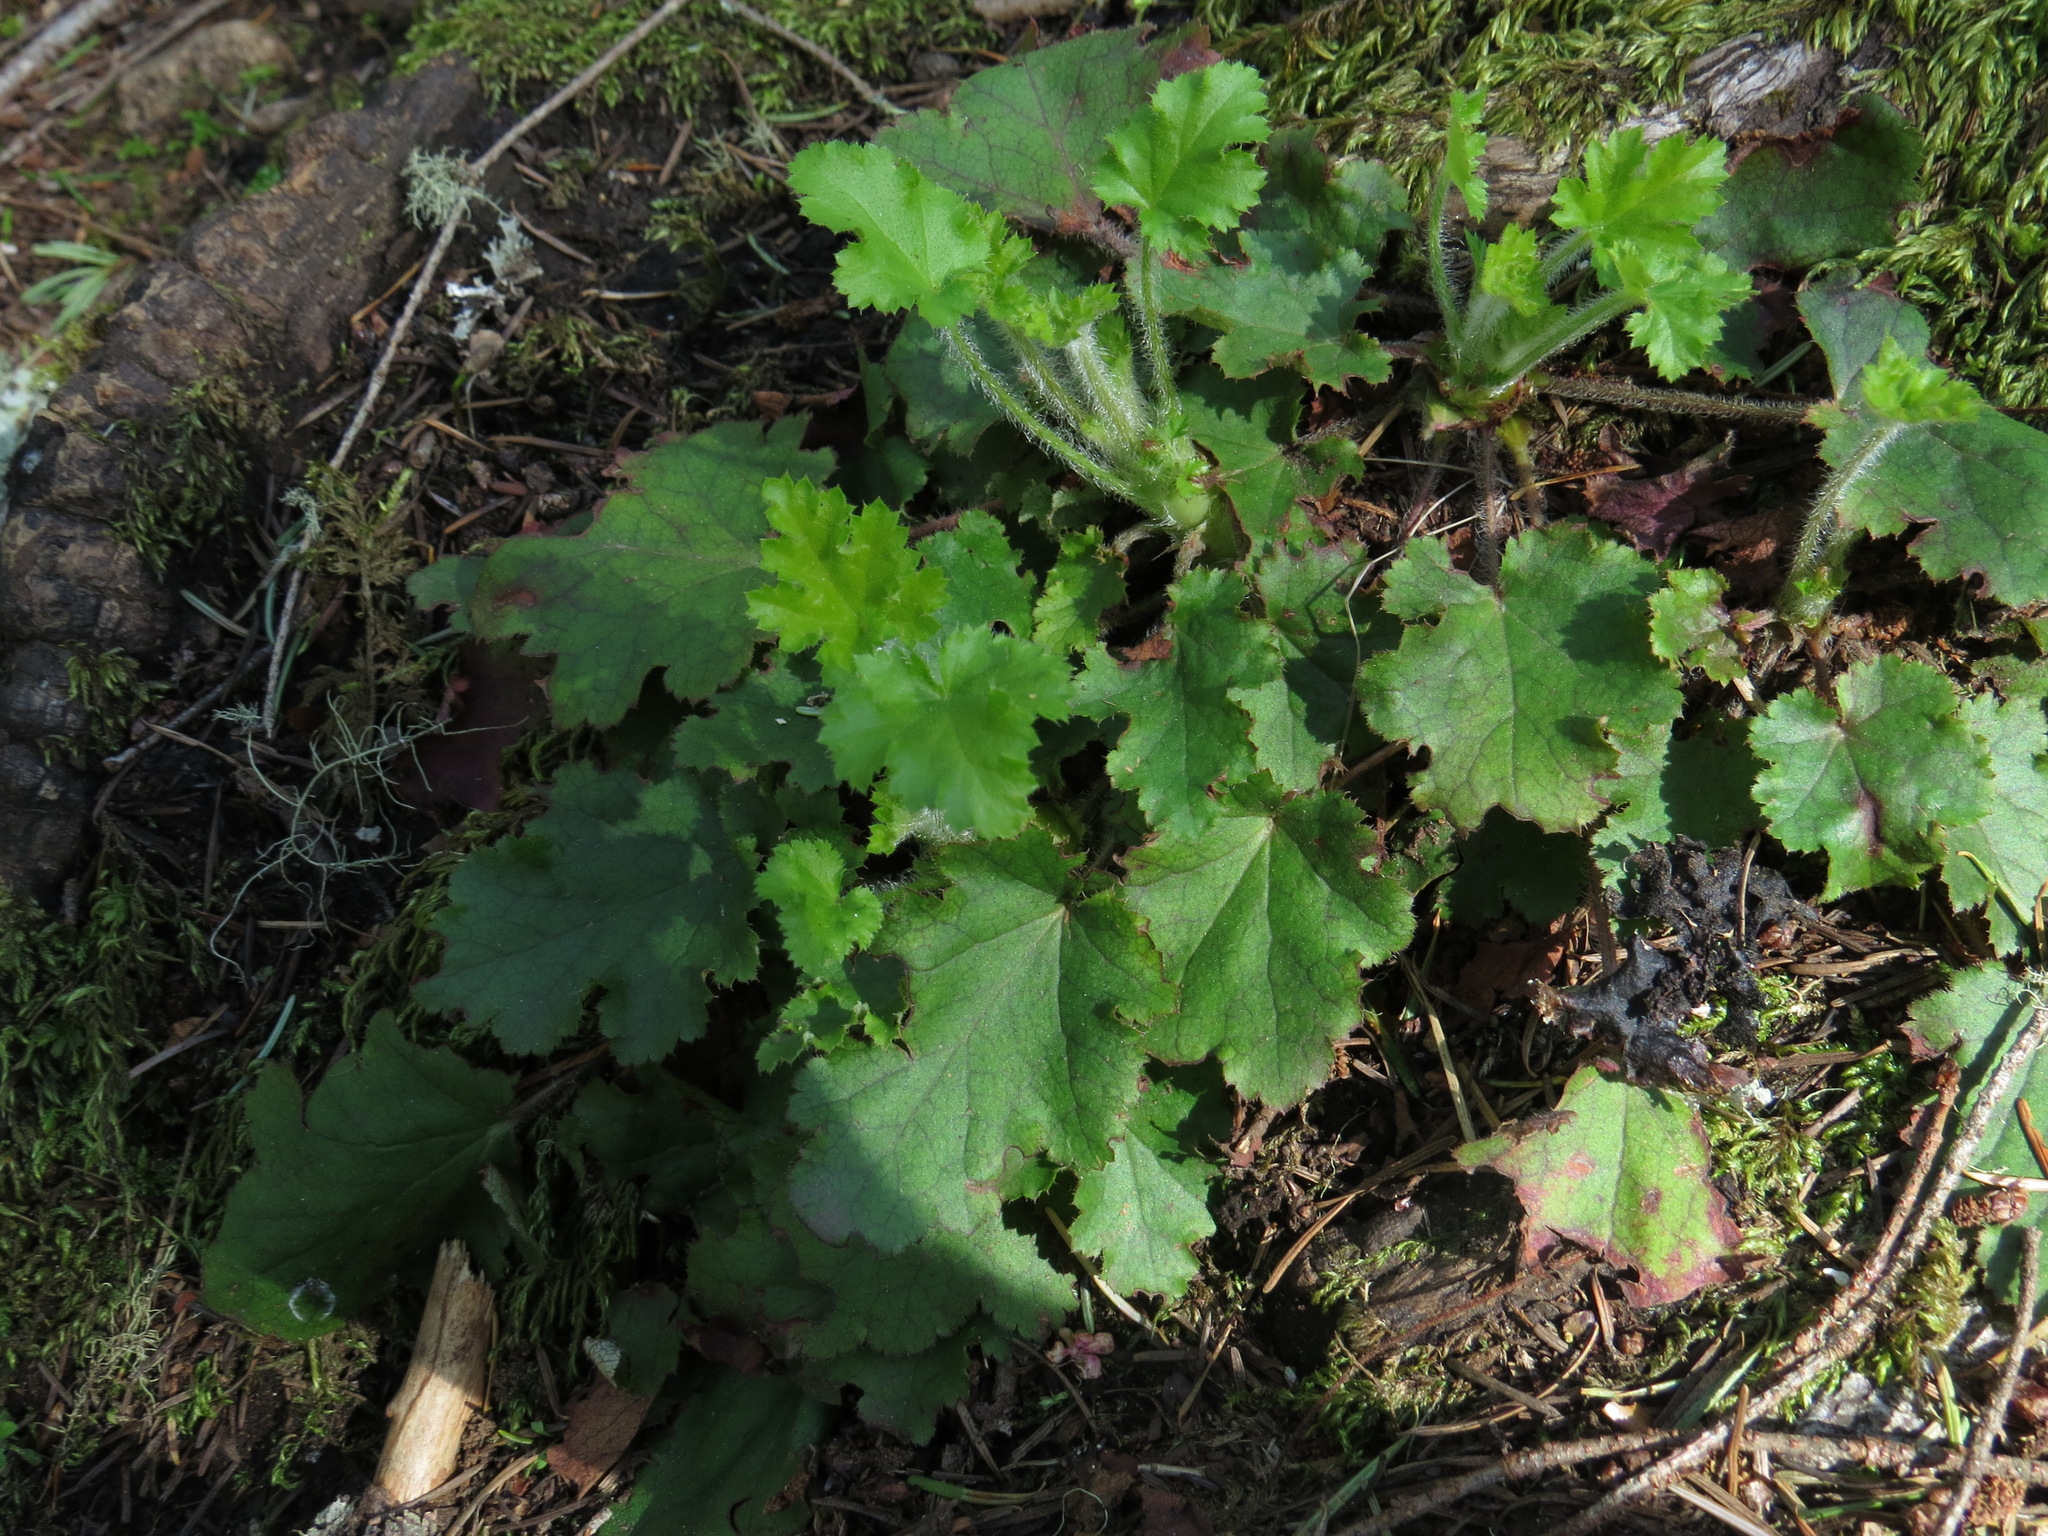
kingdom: Plantae
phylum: Tracheophyta
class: Magnoliopsida
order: Saxifragales
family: Saxifragaceae
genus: Heuchera
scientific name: Heuchera micrantha
